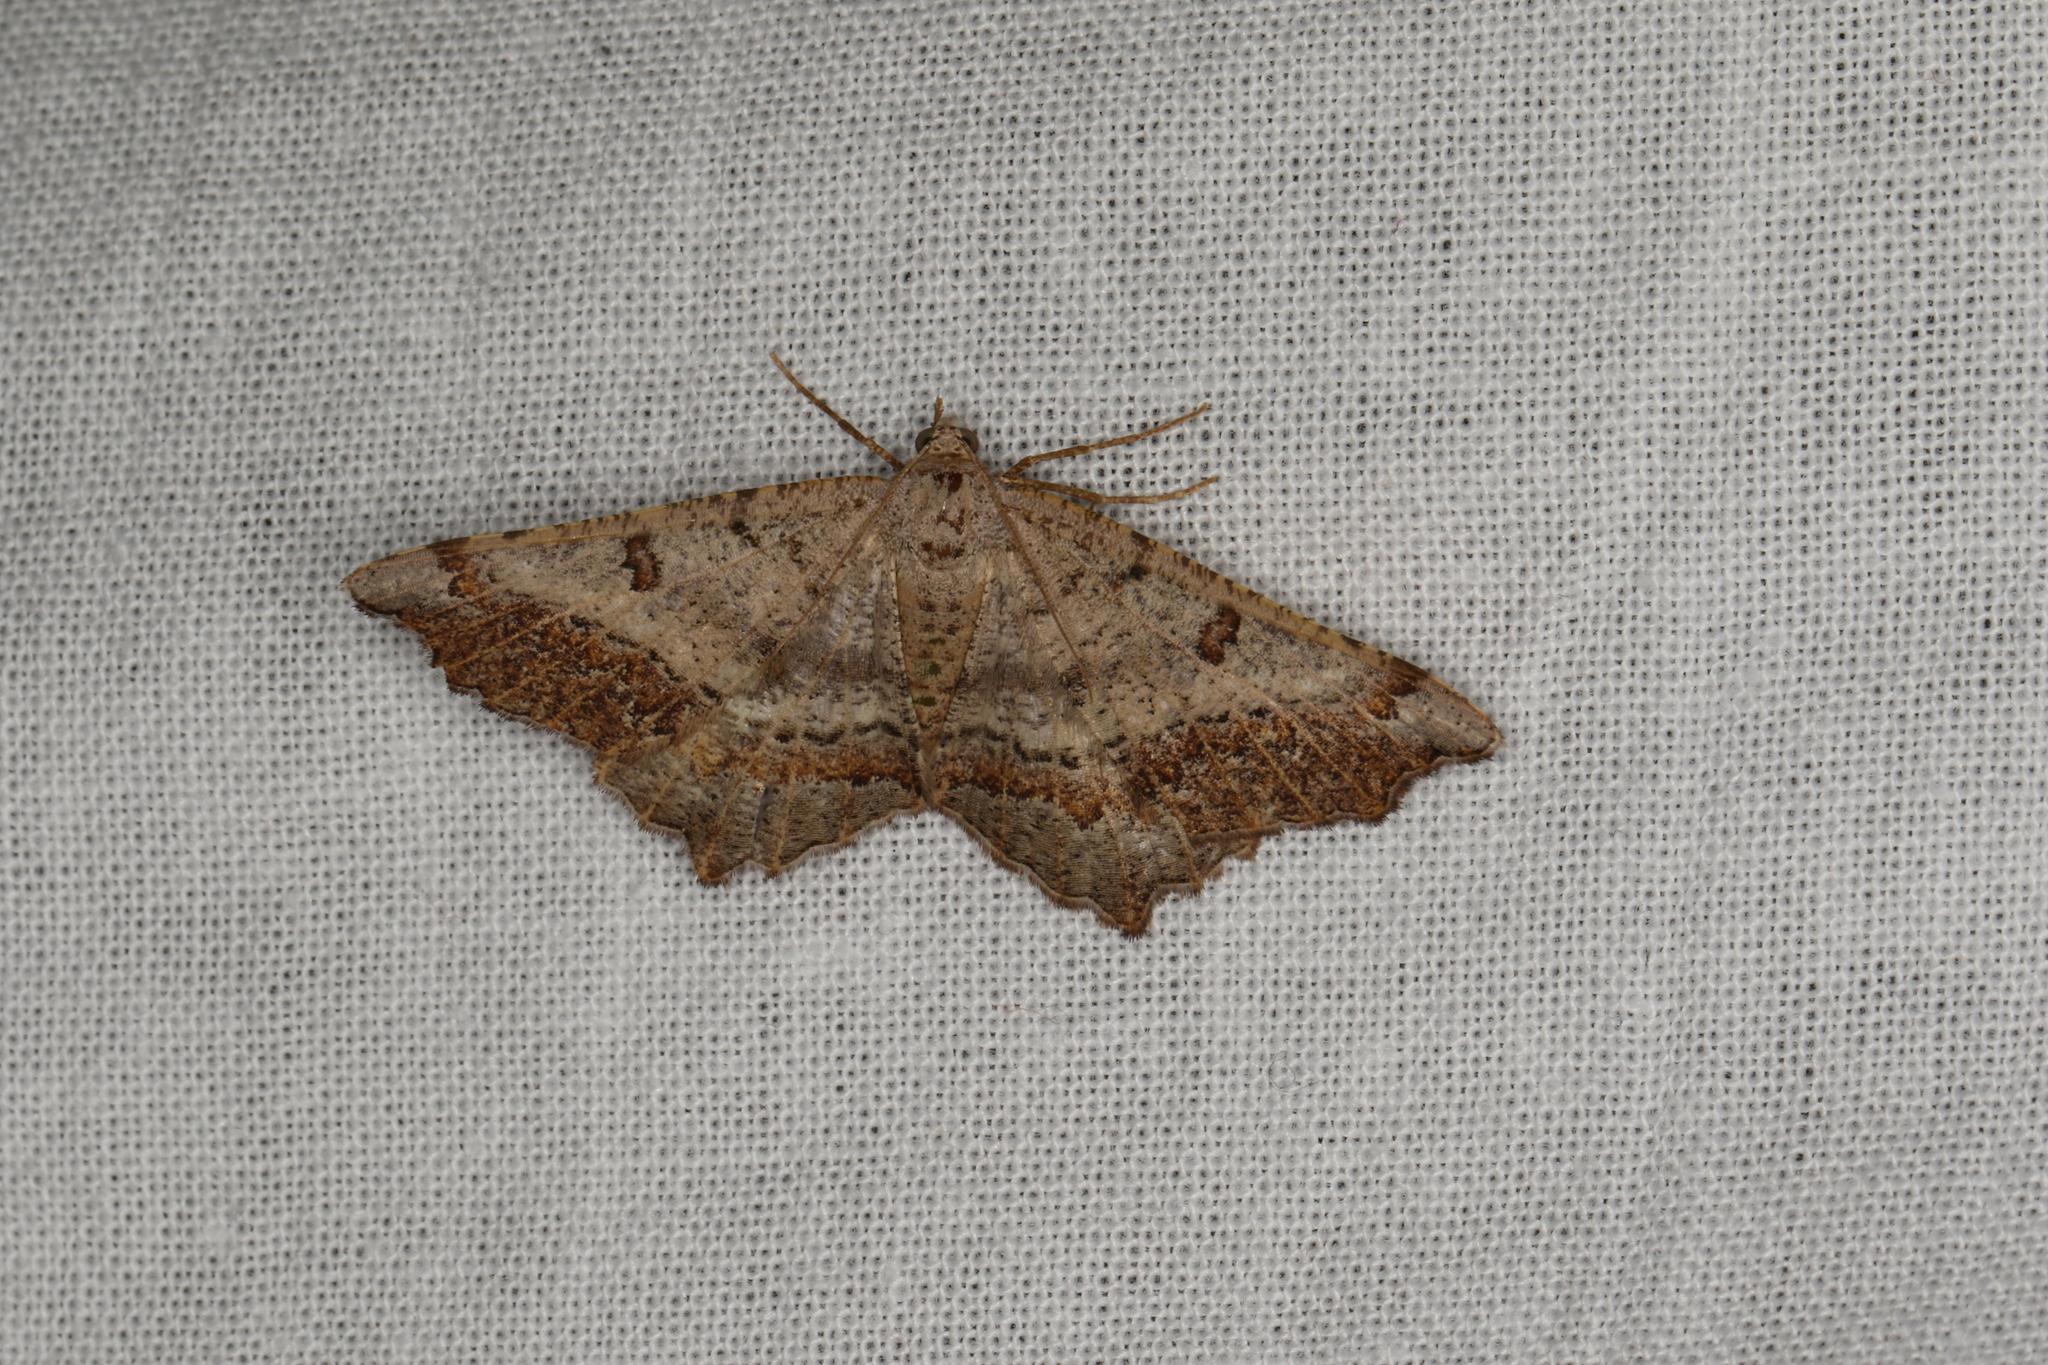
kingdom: Animalia
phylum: Arthropoda
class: Insecta
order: Lepidoptera
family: Geometridae
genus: Dissomorphia
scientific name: Dissomorphia australiaria
